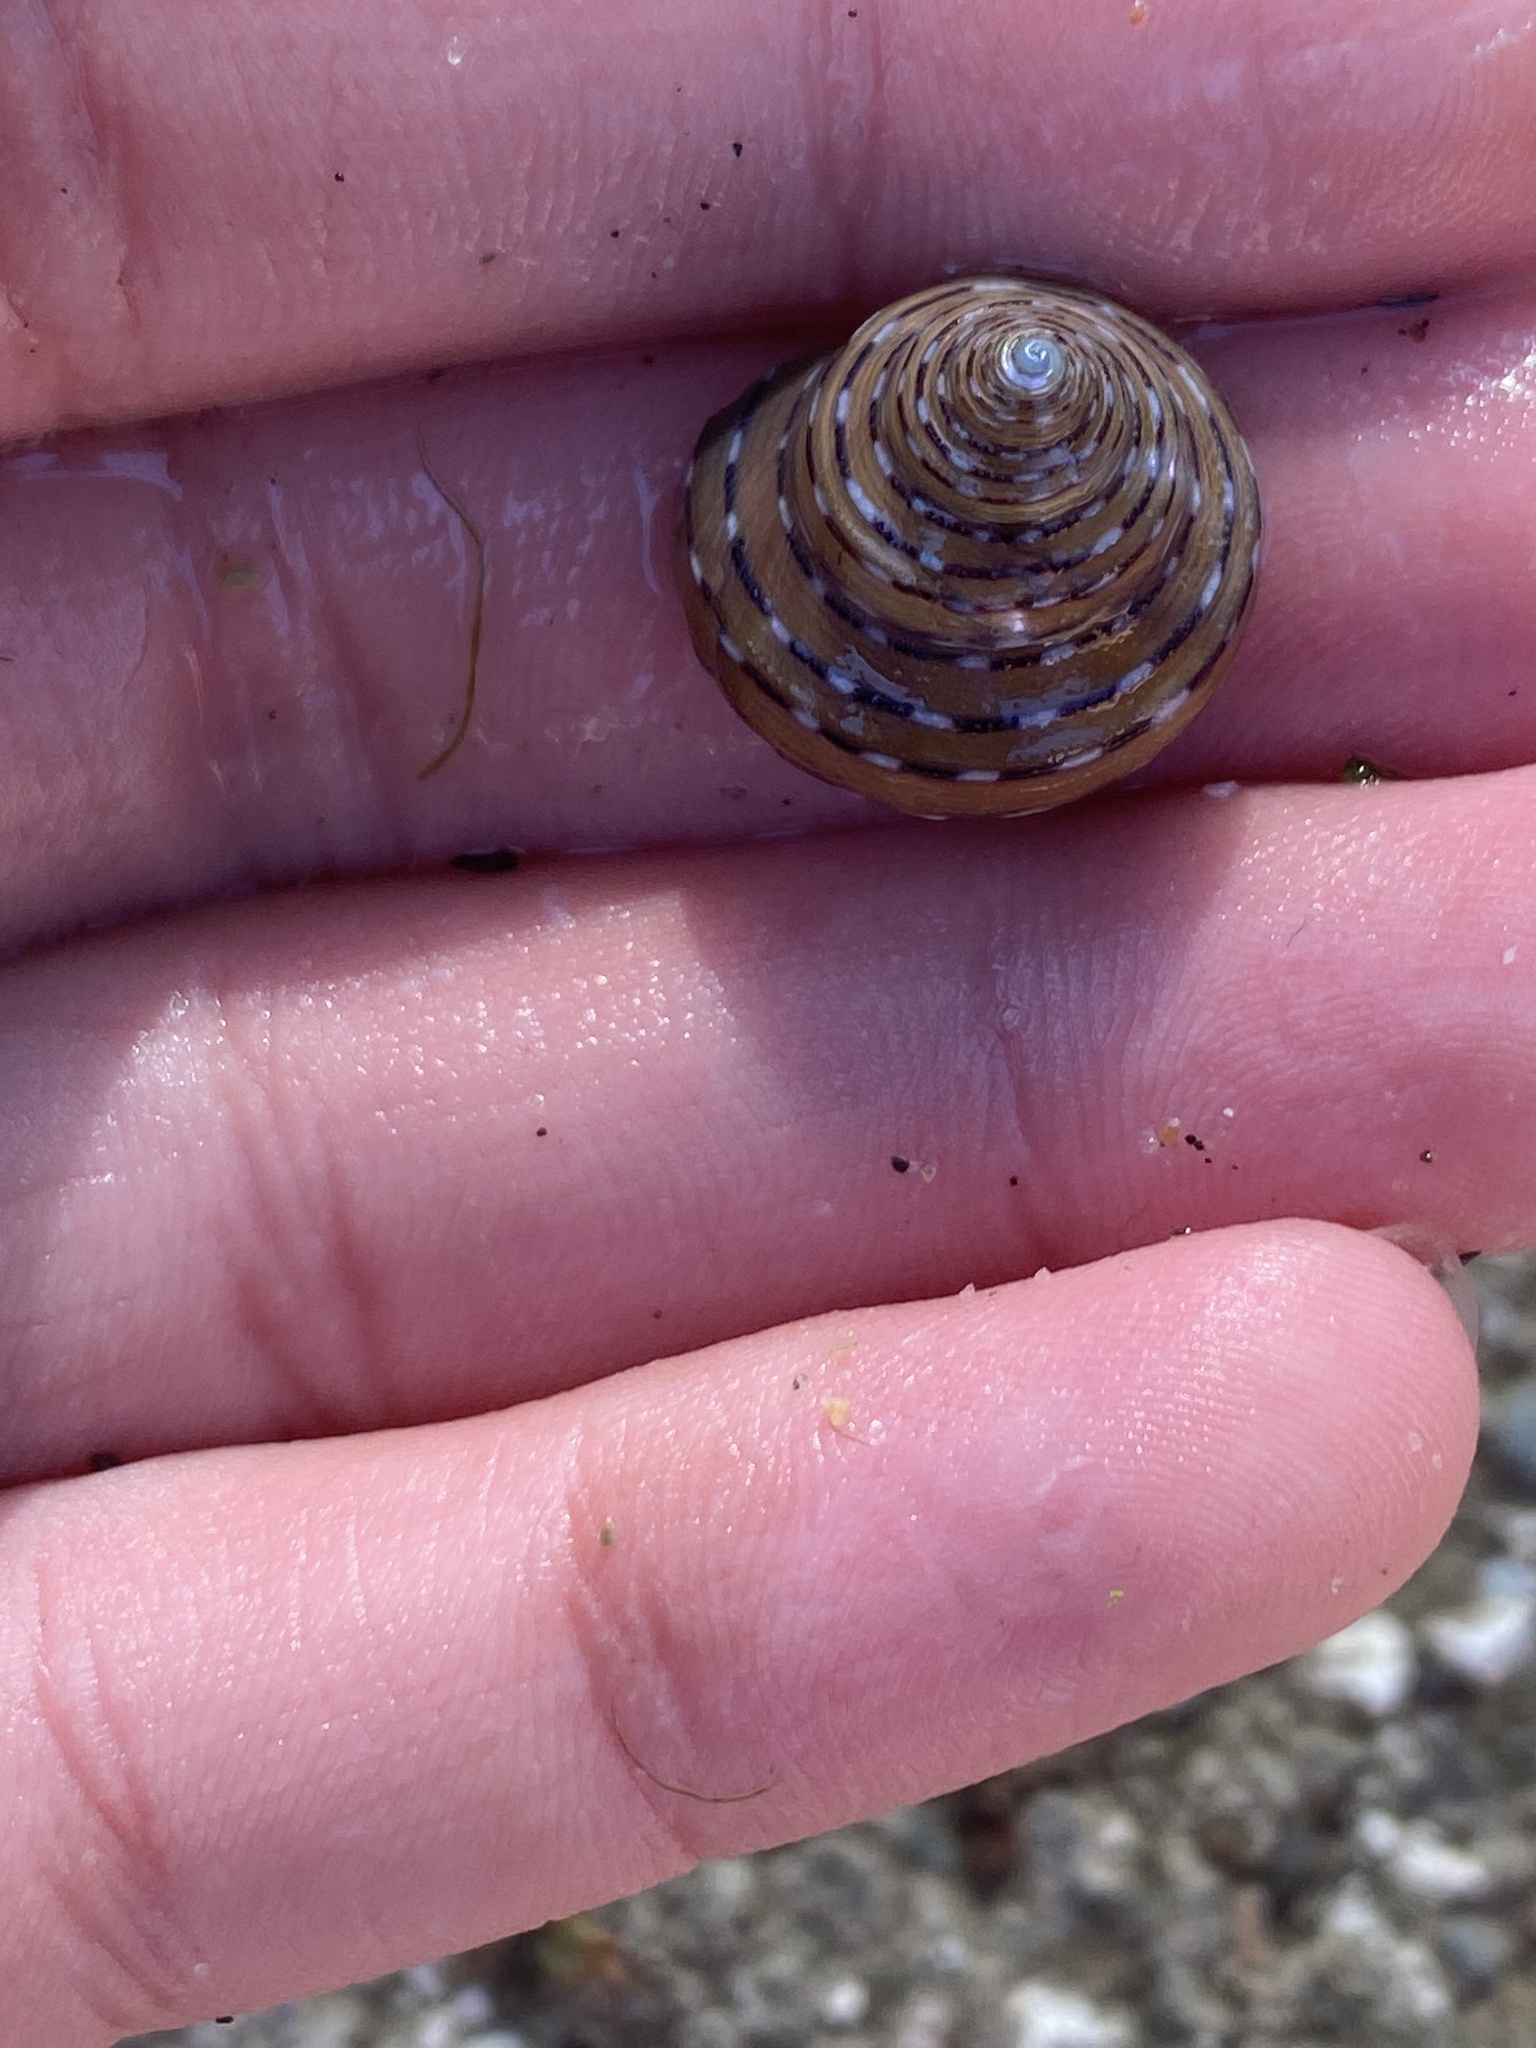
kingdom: Animalia
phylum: Mollusca
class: Gastropoda
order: Trochida
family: Calliostomatidae
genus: Calliostoma
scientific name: Calliostoma tricolor
